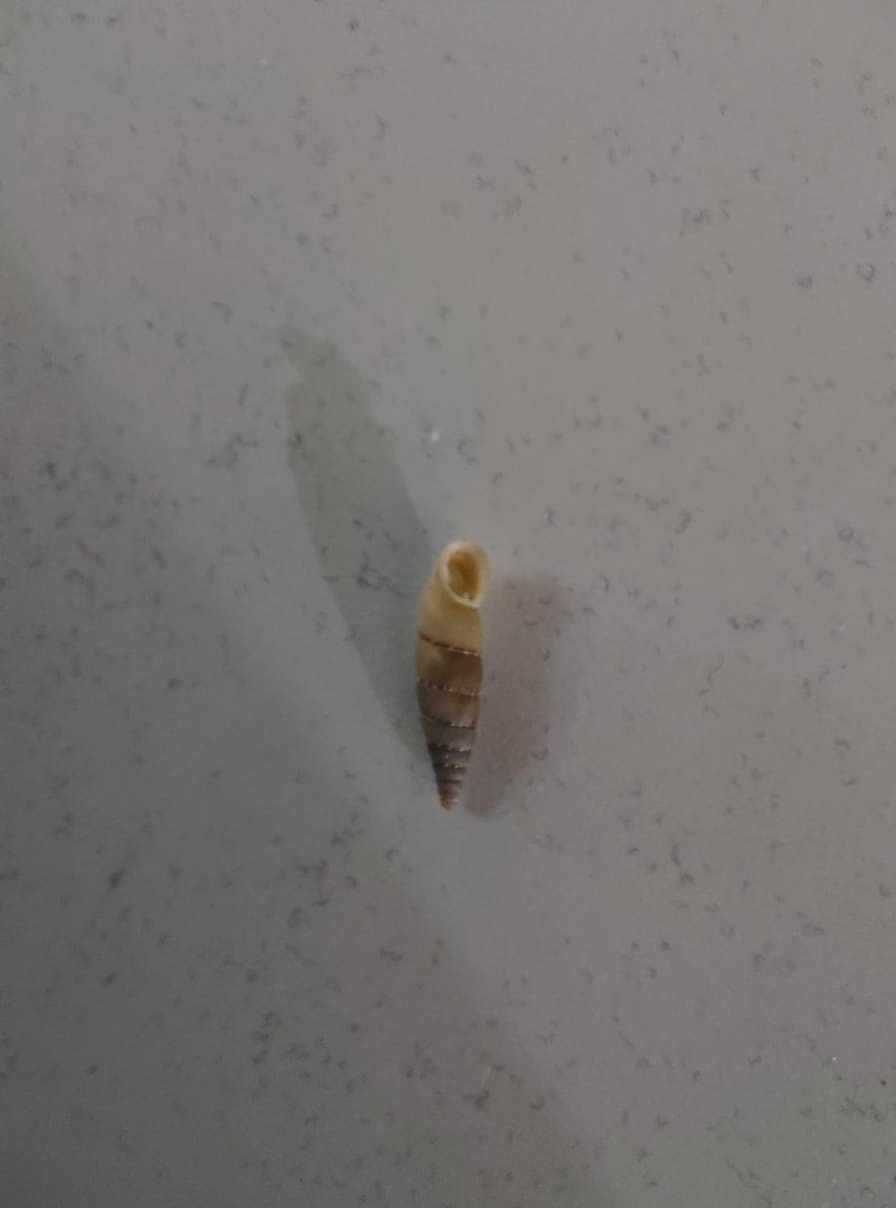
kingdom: Animalia
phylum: Mollusca
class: Gastropoda
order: Stylommatophora
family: Clausiliidae
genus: Papillifera
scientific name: Papillifera papillaris
